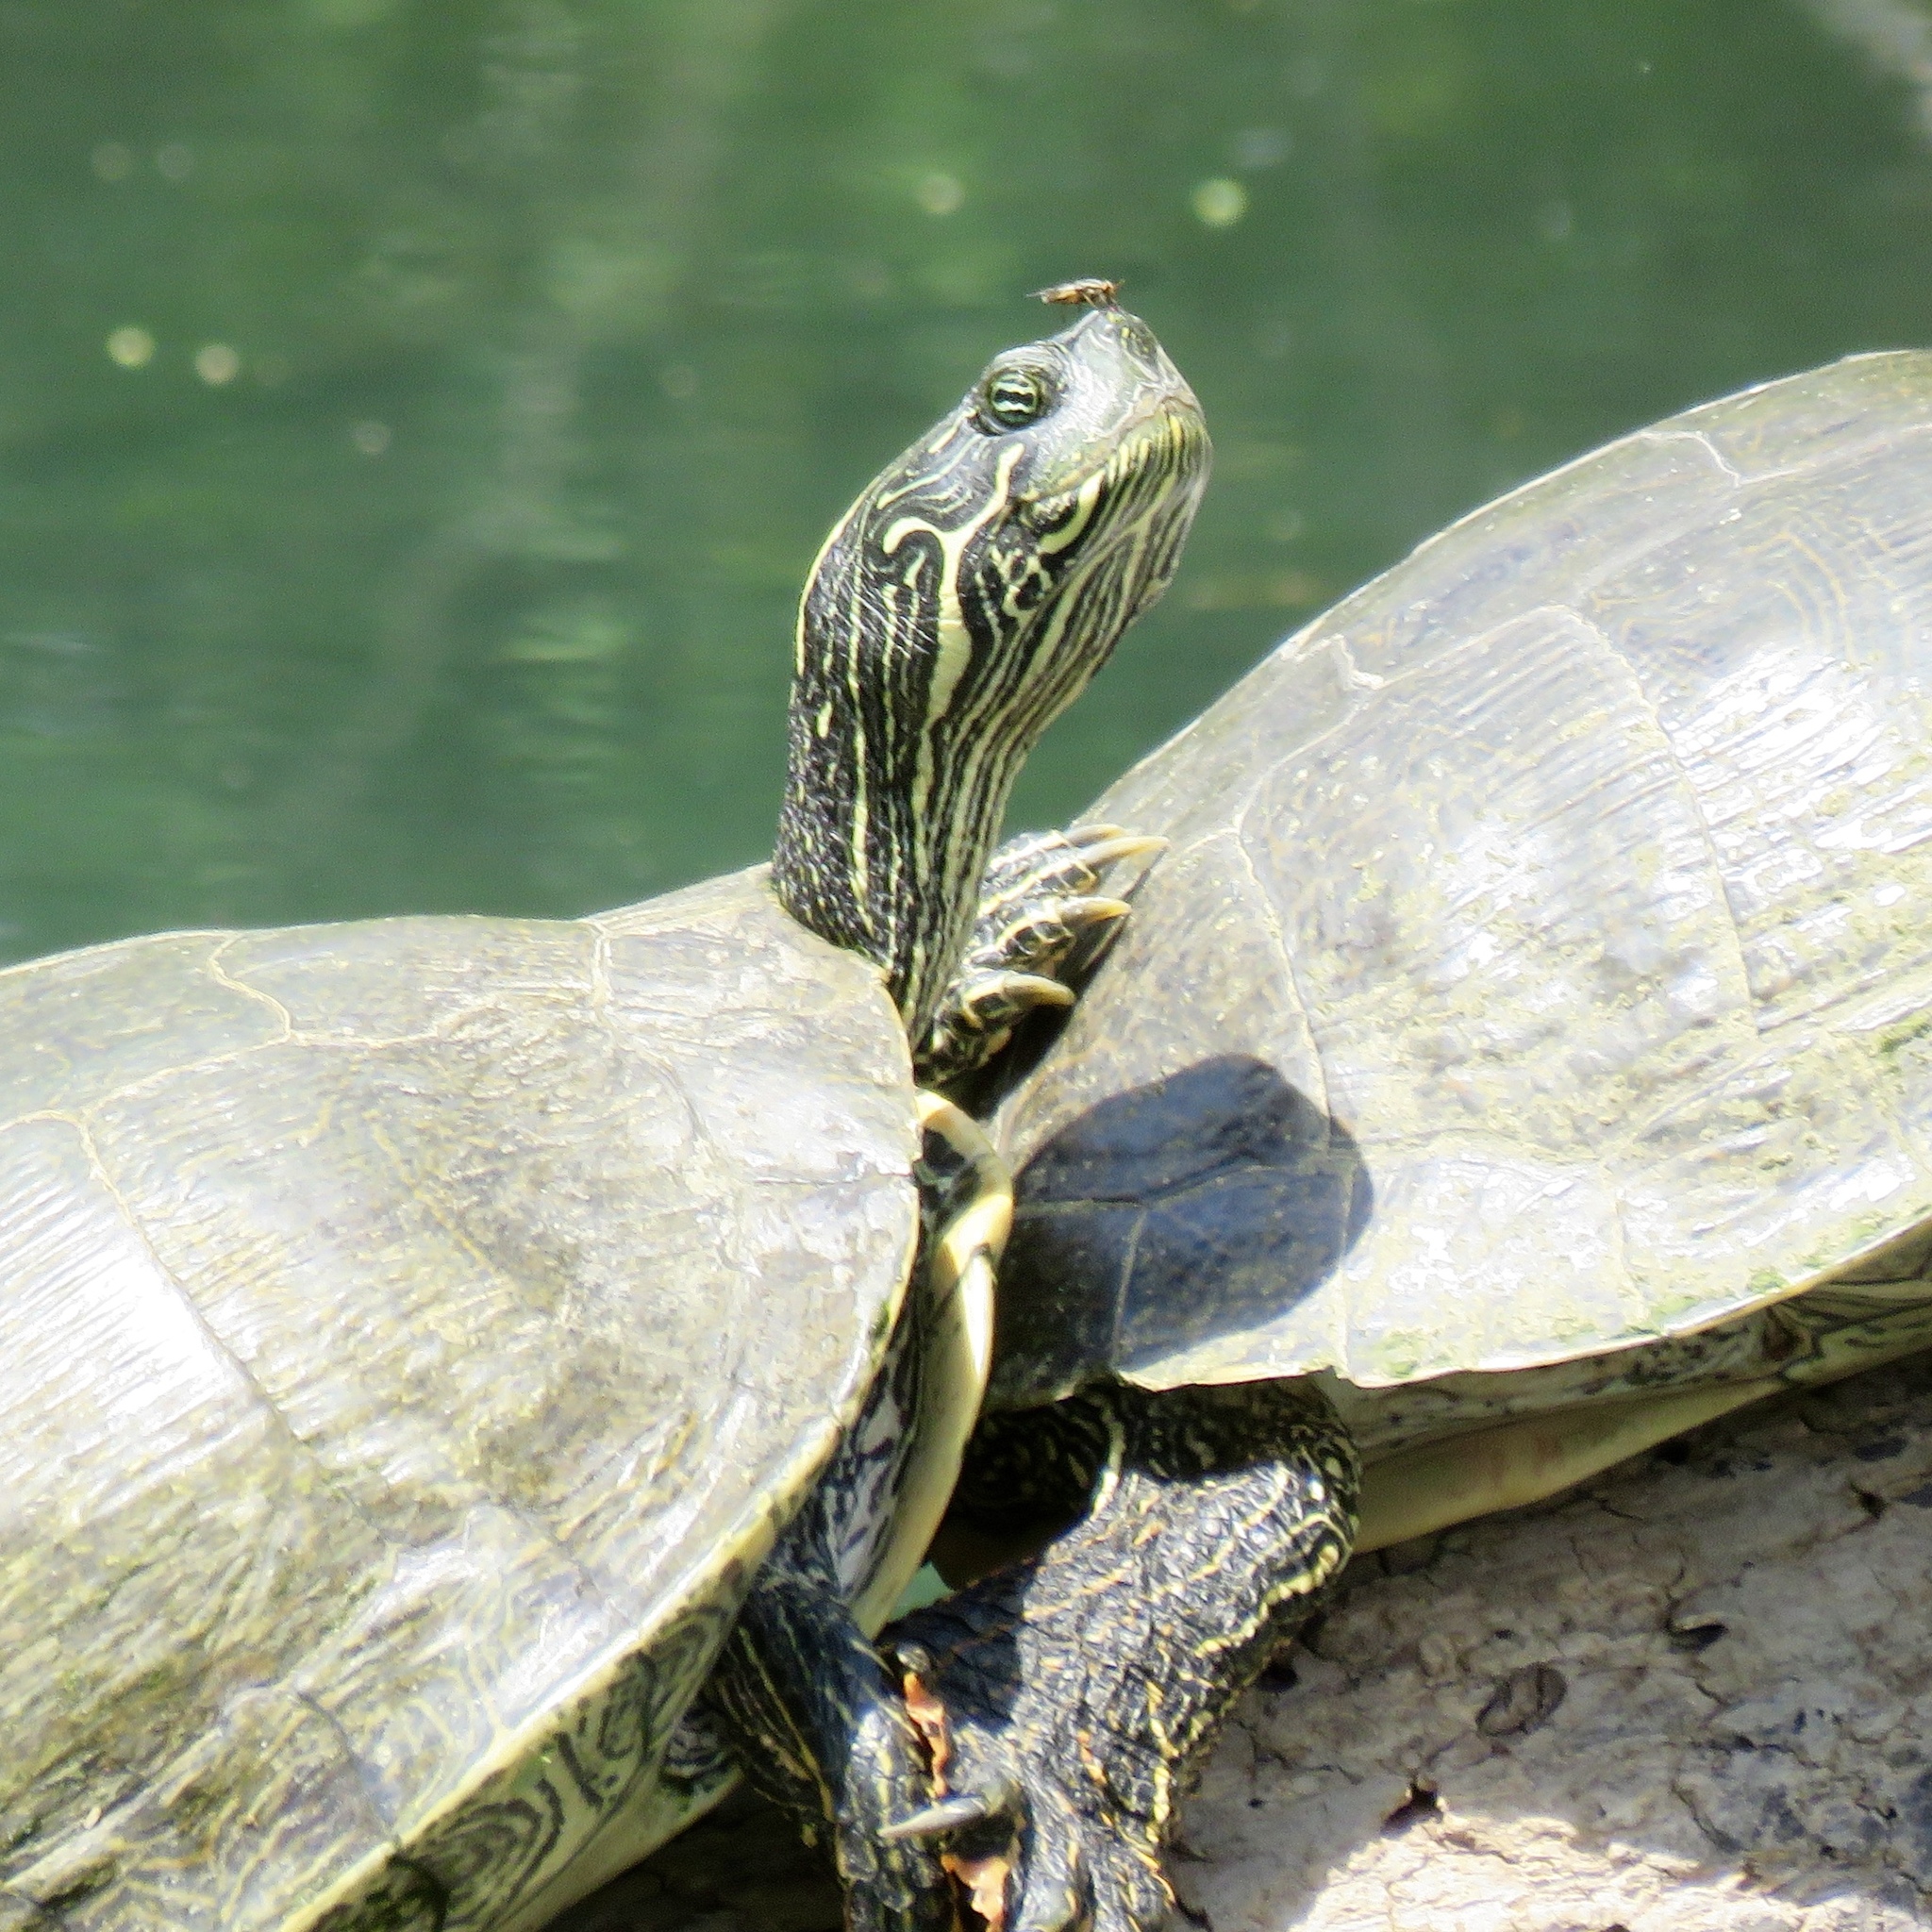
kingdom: Animalia
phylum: Chordata
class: Testudines
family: Emydidae
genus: Pseudemys
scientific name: Pseudemys texana
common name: Texas river cooter
